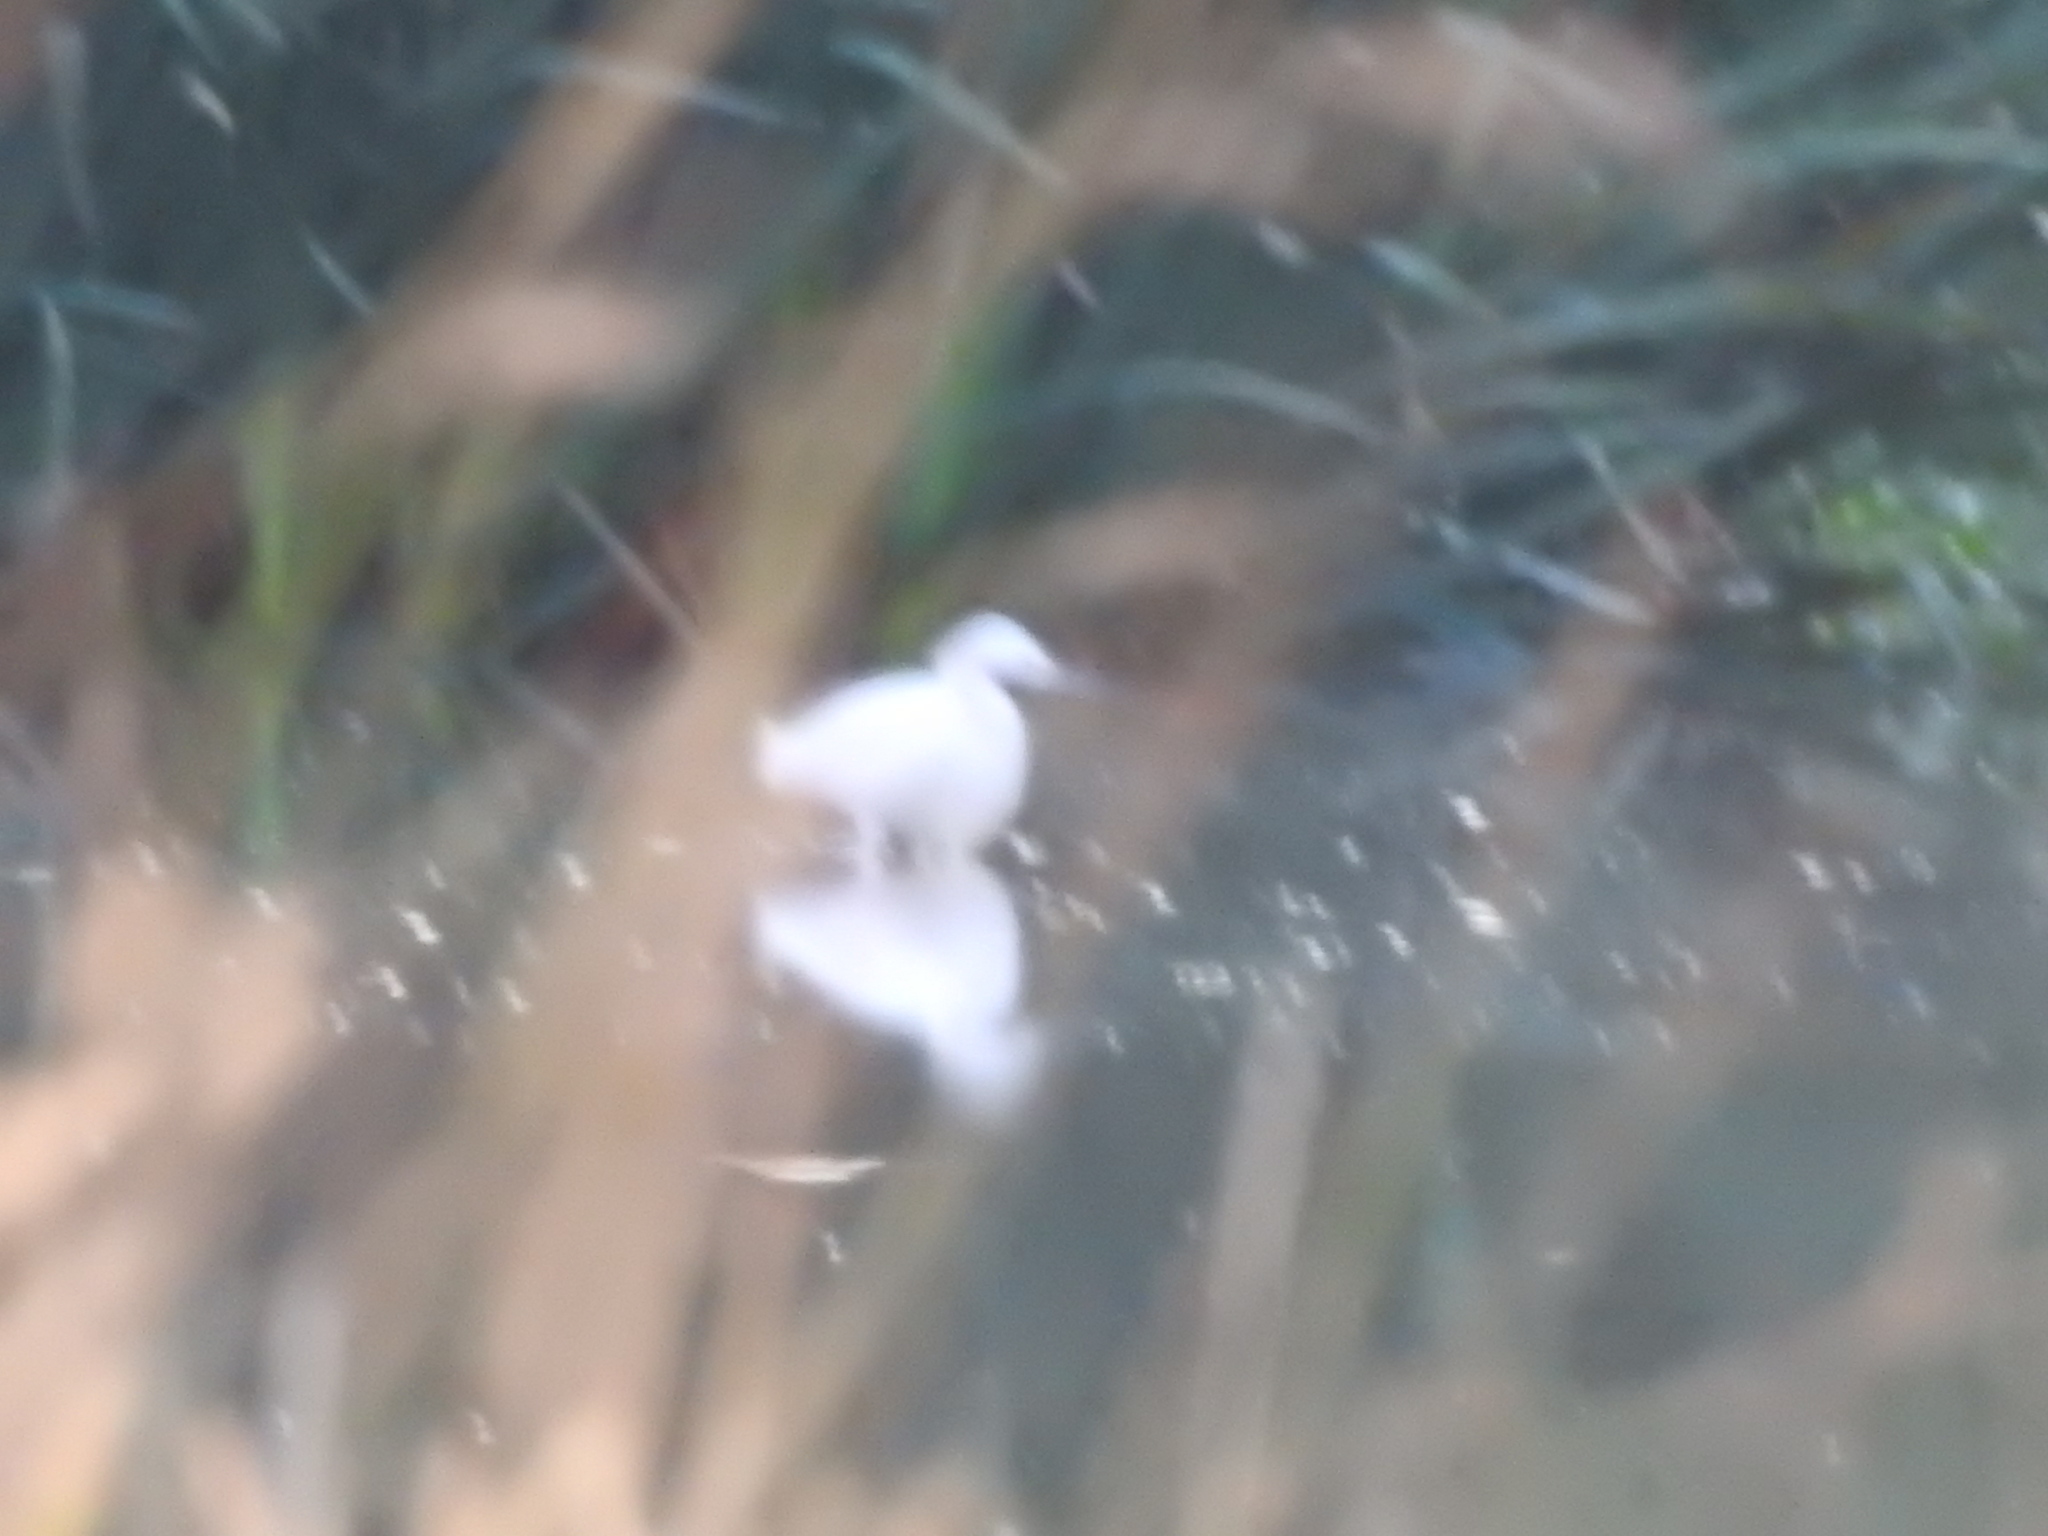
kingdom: Animalia
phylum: Chordata
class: Aves
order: Pelecaniformes
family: Ardeidae
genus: Egretta
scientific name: Egretta thula
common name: Snowy egret
